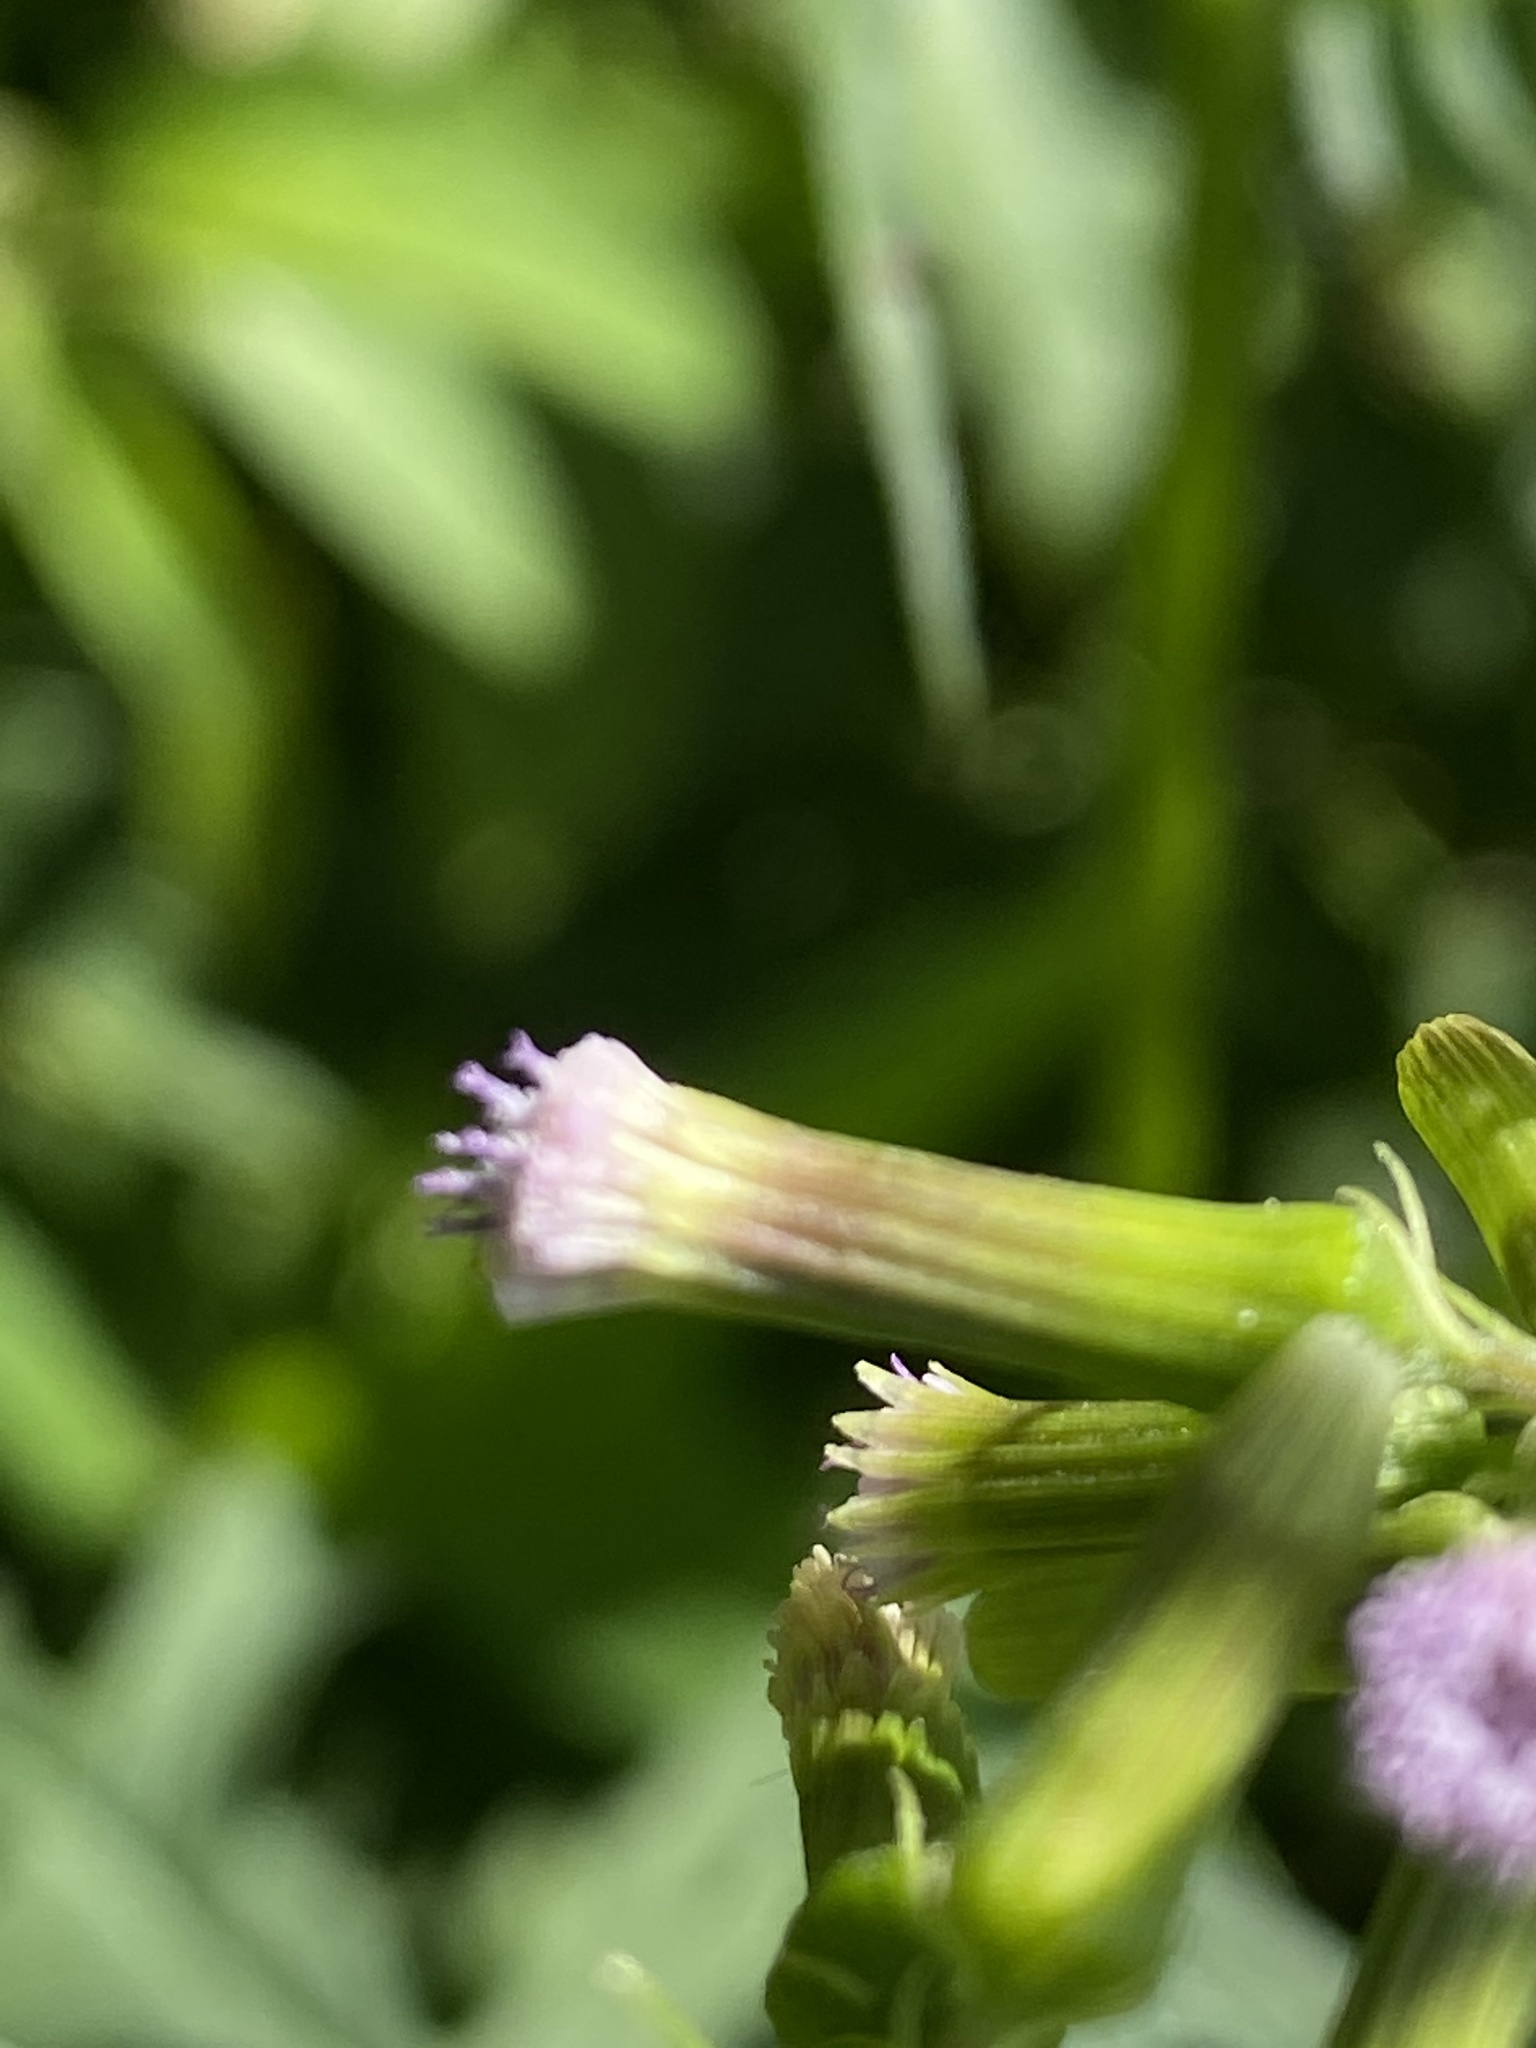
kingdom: Plantae
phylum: Tracheophyta
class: Magnoliopsida
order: Asterales
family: Asteraceae
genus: Erechtites
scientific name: Erechtites valerianifolius
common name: Tropical burnweed
